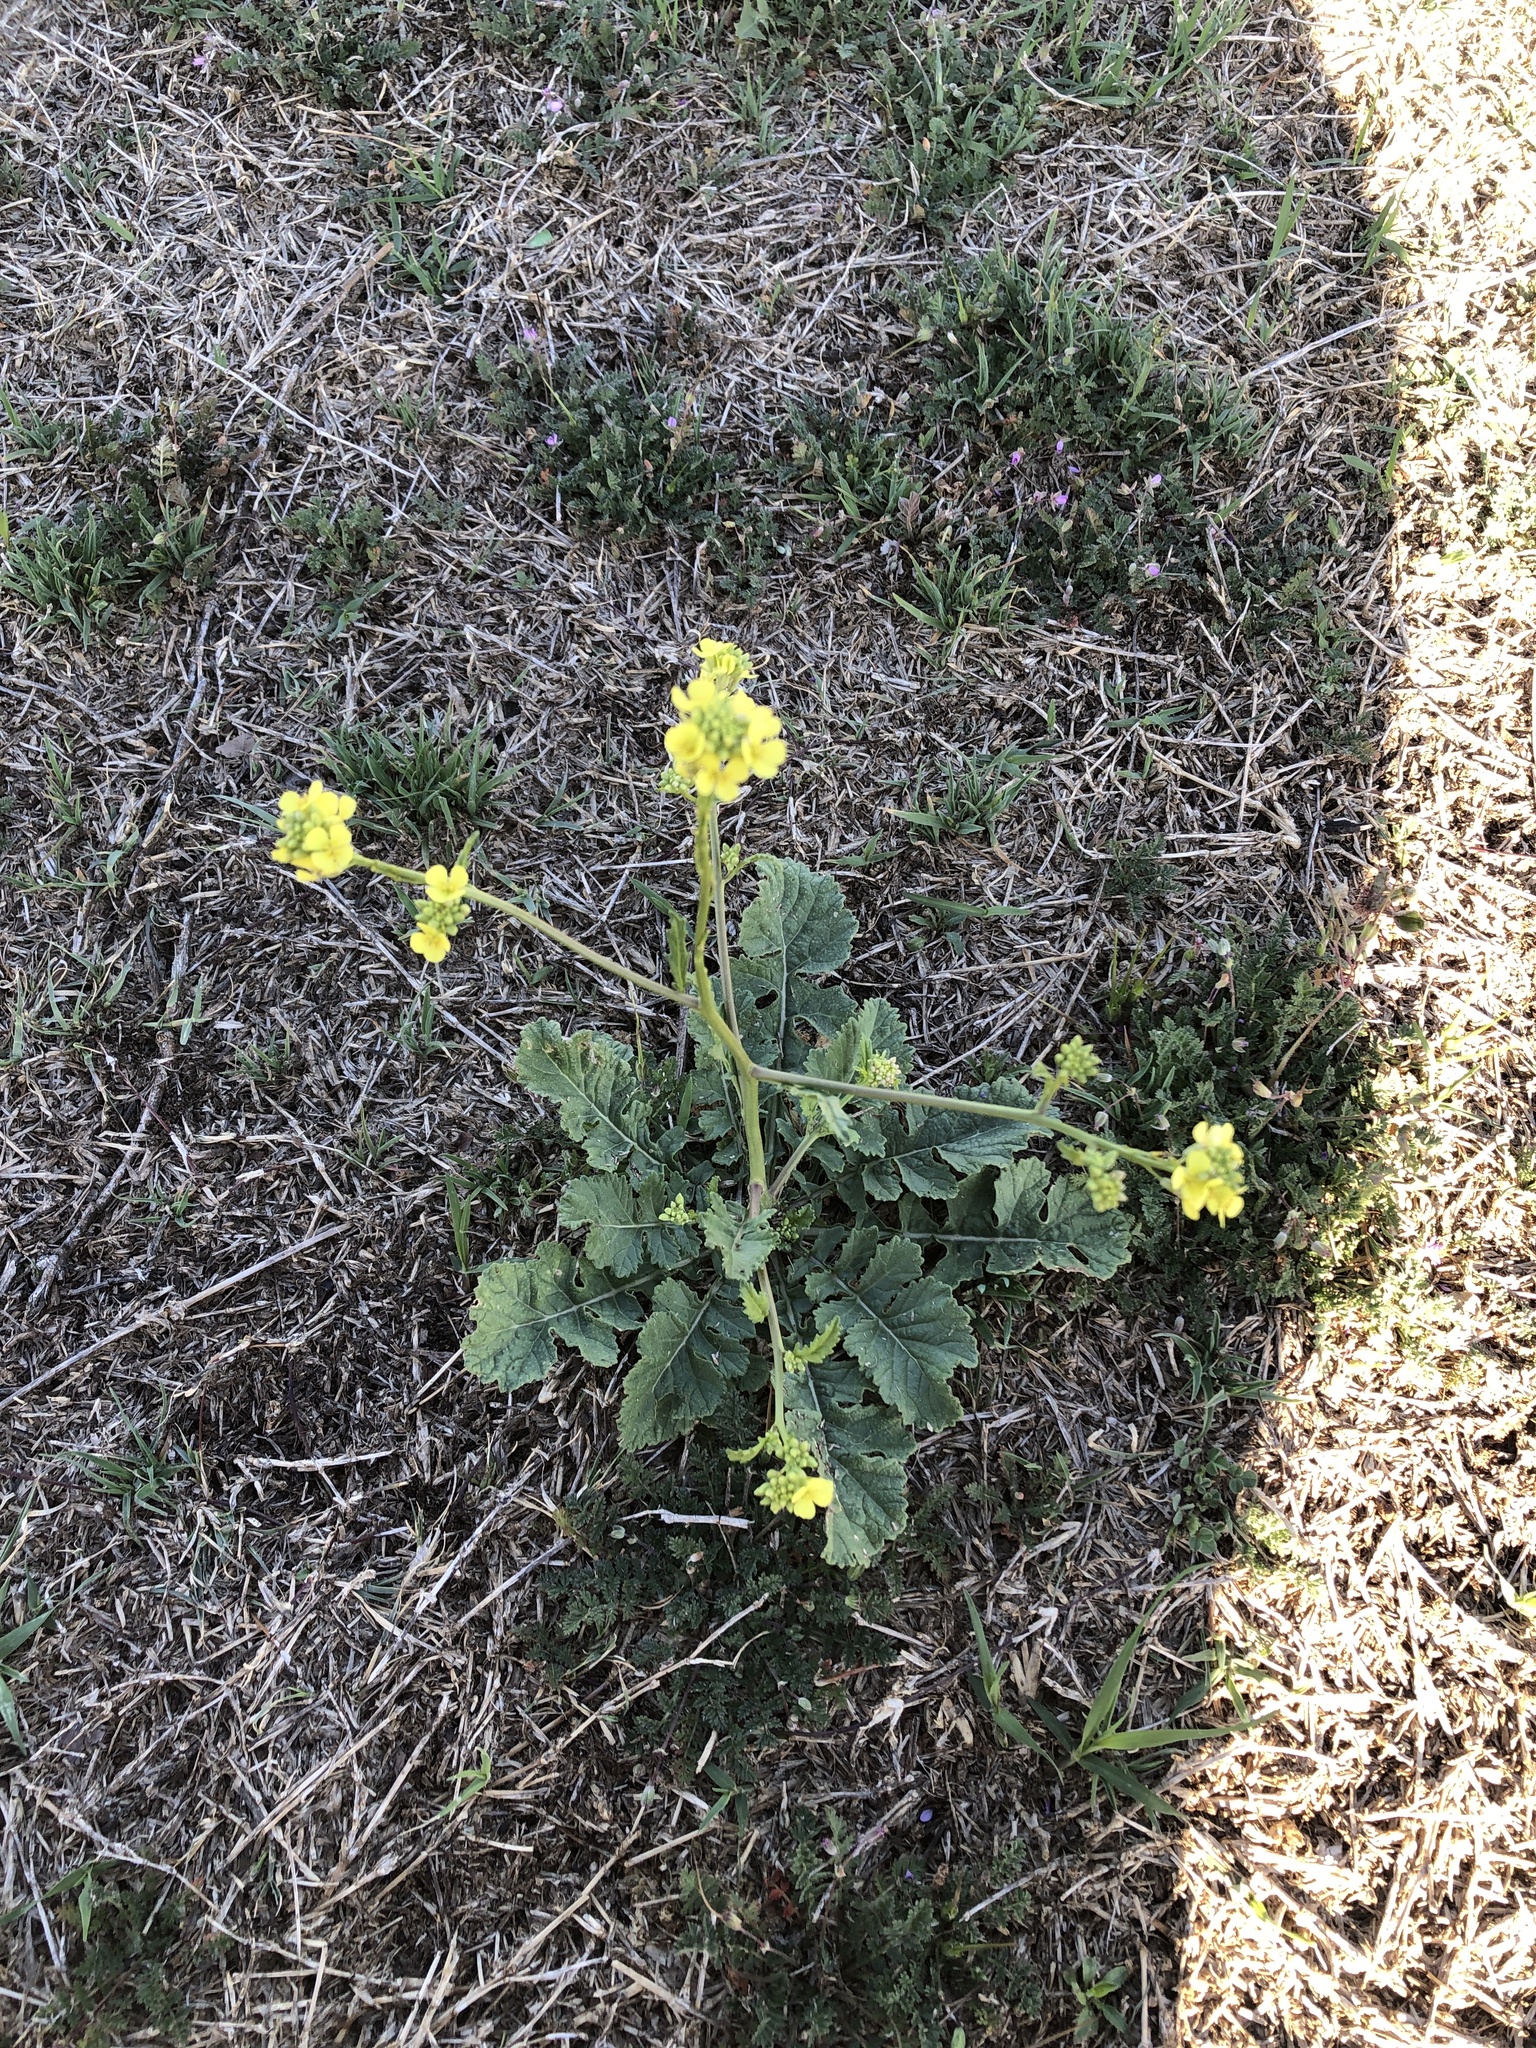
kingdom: Plantae
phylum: Tracheophyta
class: Magnoliopsida
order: Brassicales
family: Brassicaceae
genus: Rapistrum
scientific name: Rapistrum rugosum
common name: Annual bastardcabbage
